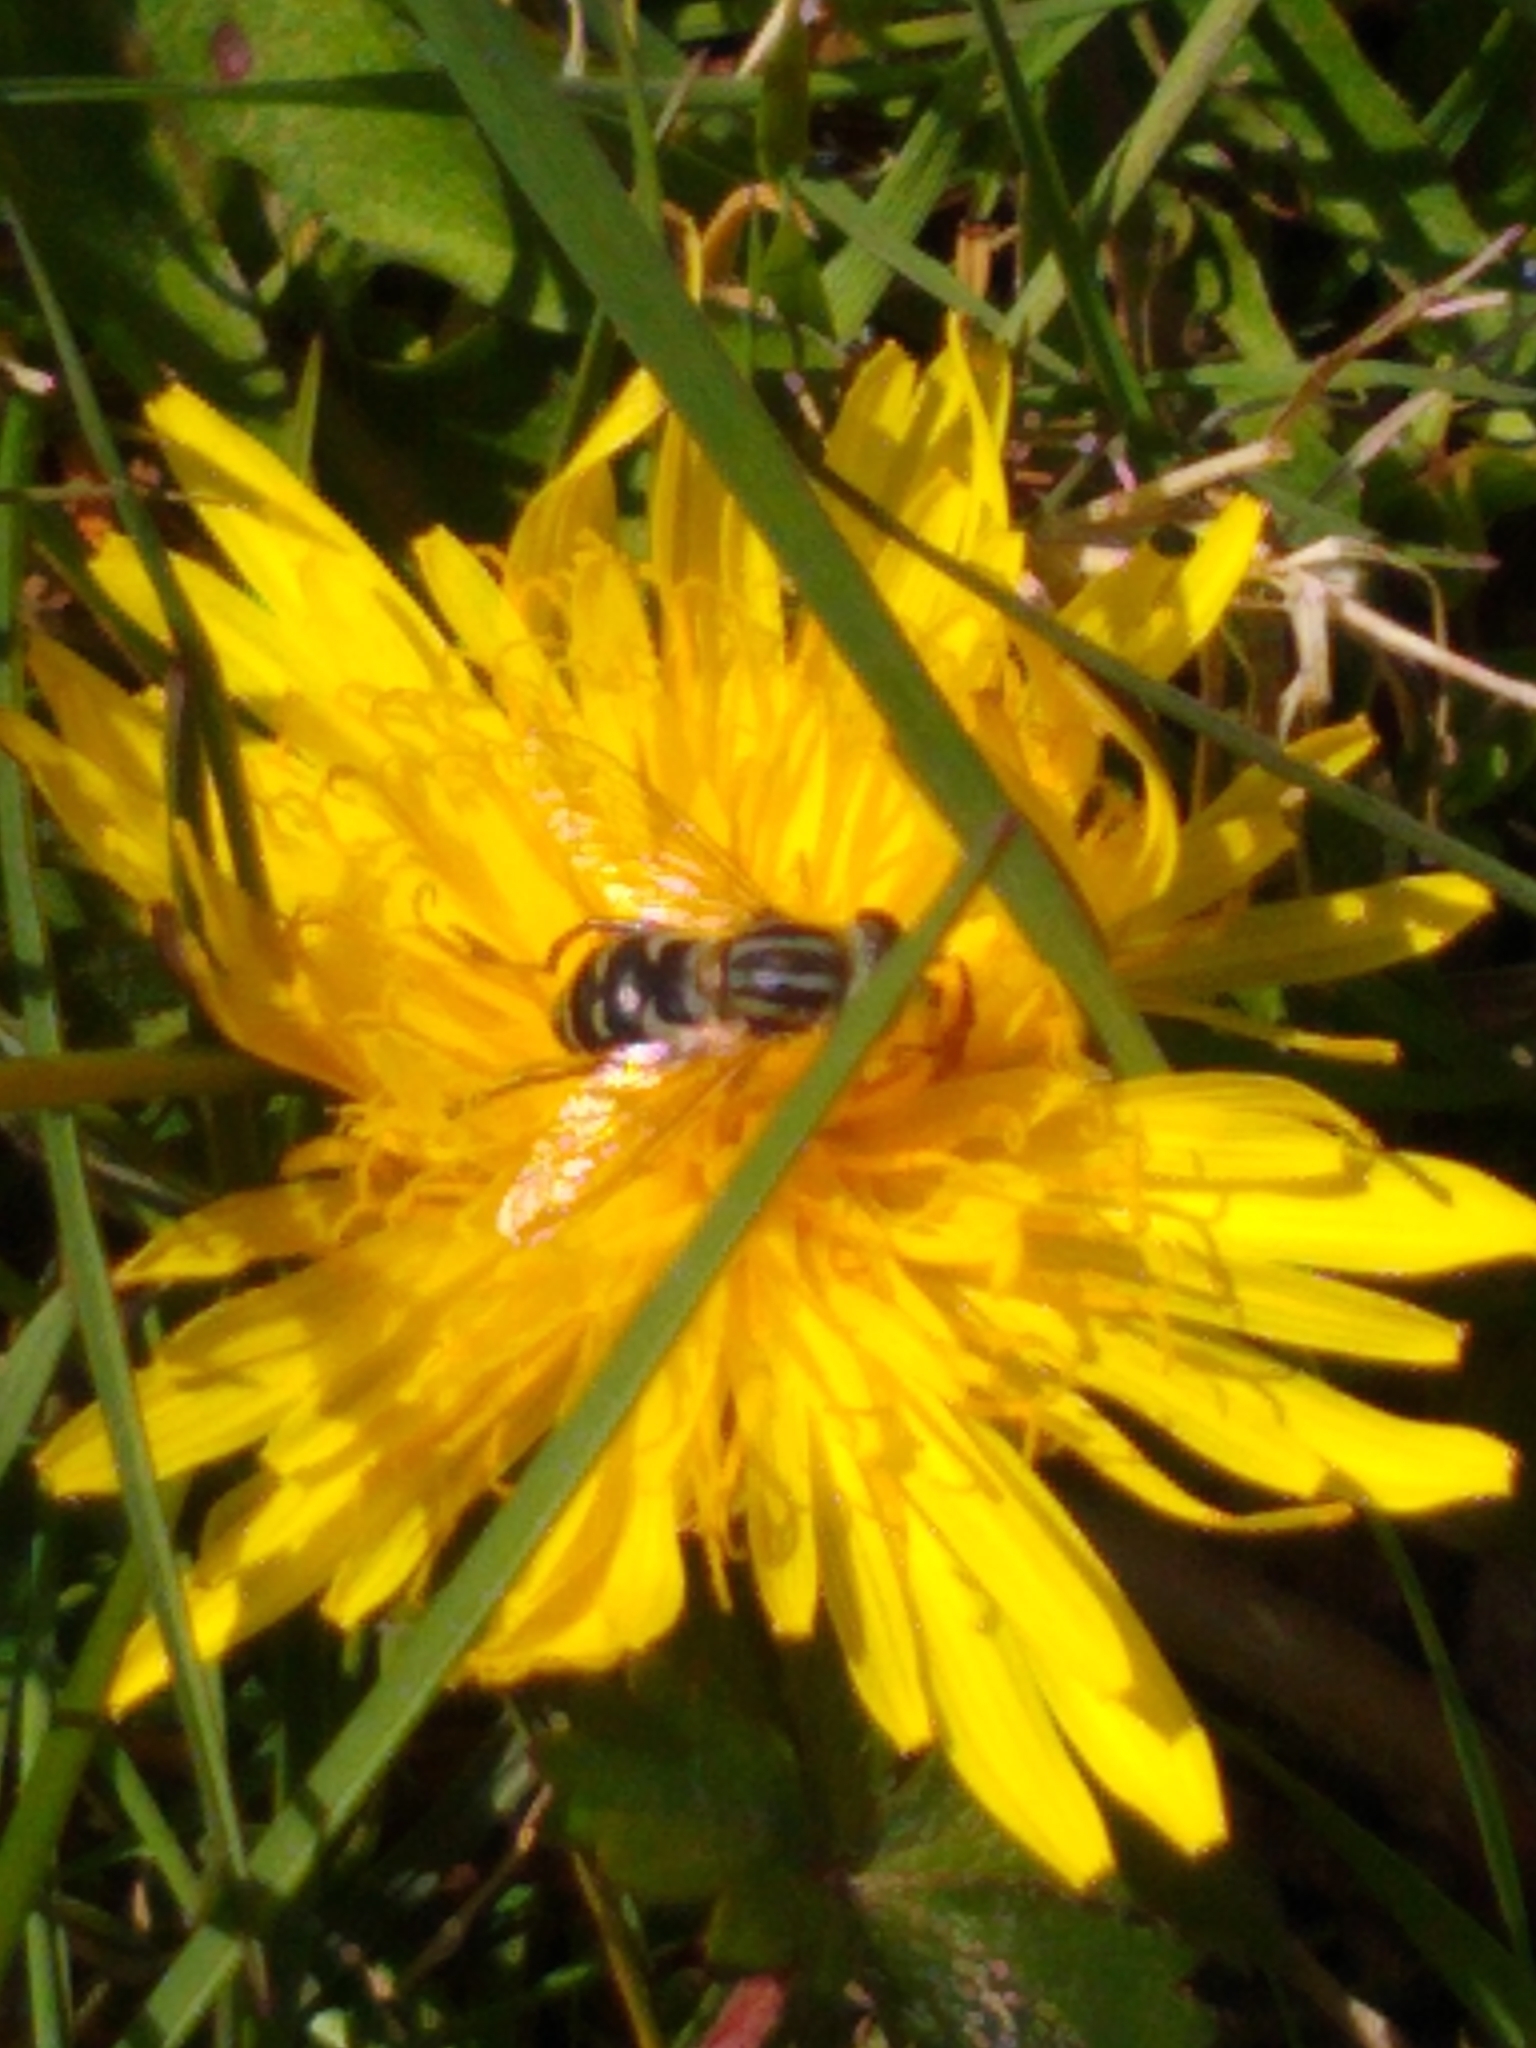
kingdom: Animalia
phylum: Arthropoda
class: Insecta
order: Diptera
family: Syrphidae
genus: Anasimyia
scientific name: Anasimyia bilinearis
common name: Two-lined swamp fly
